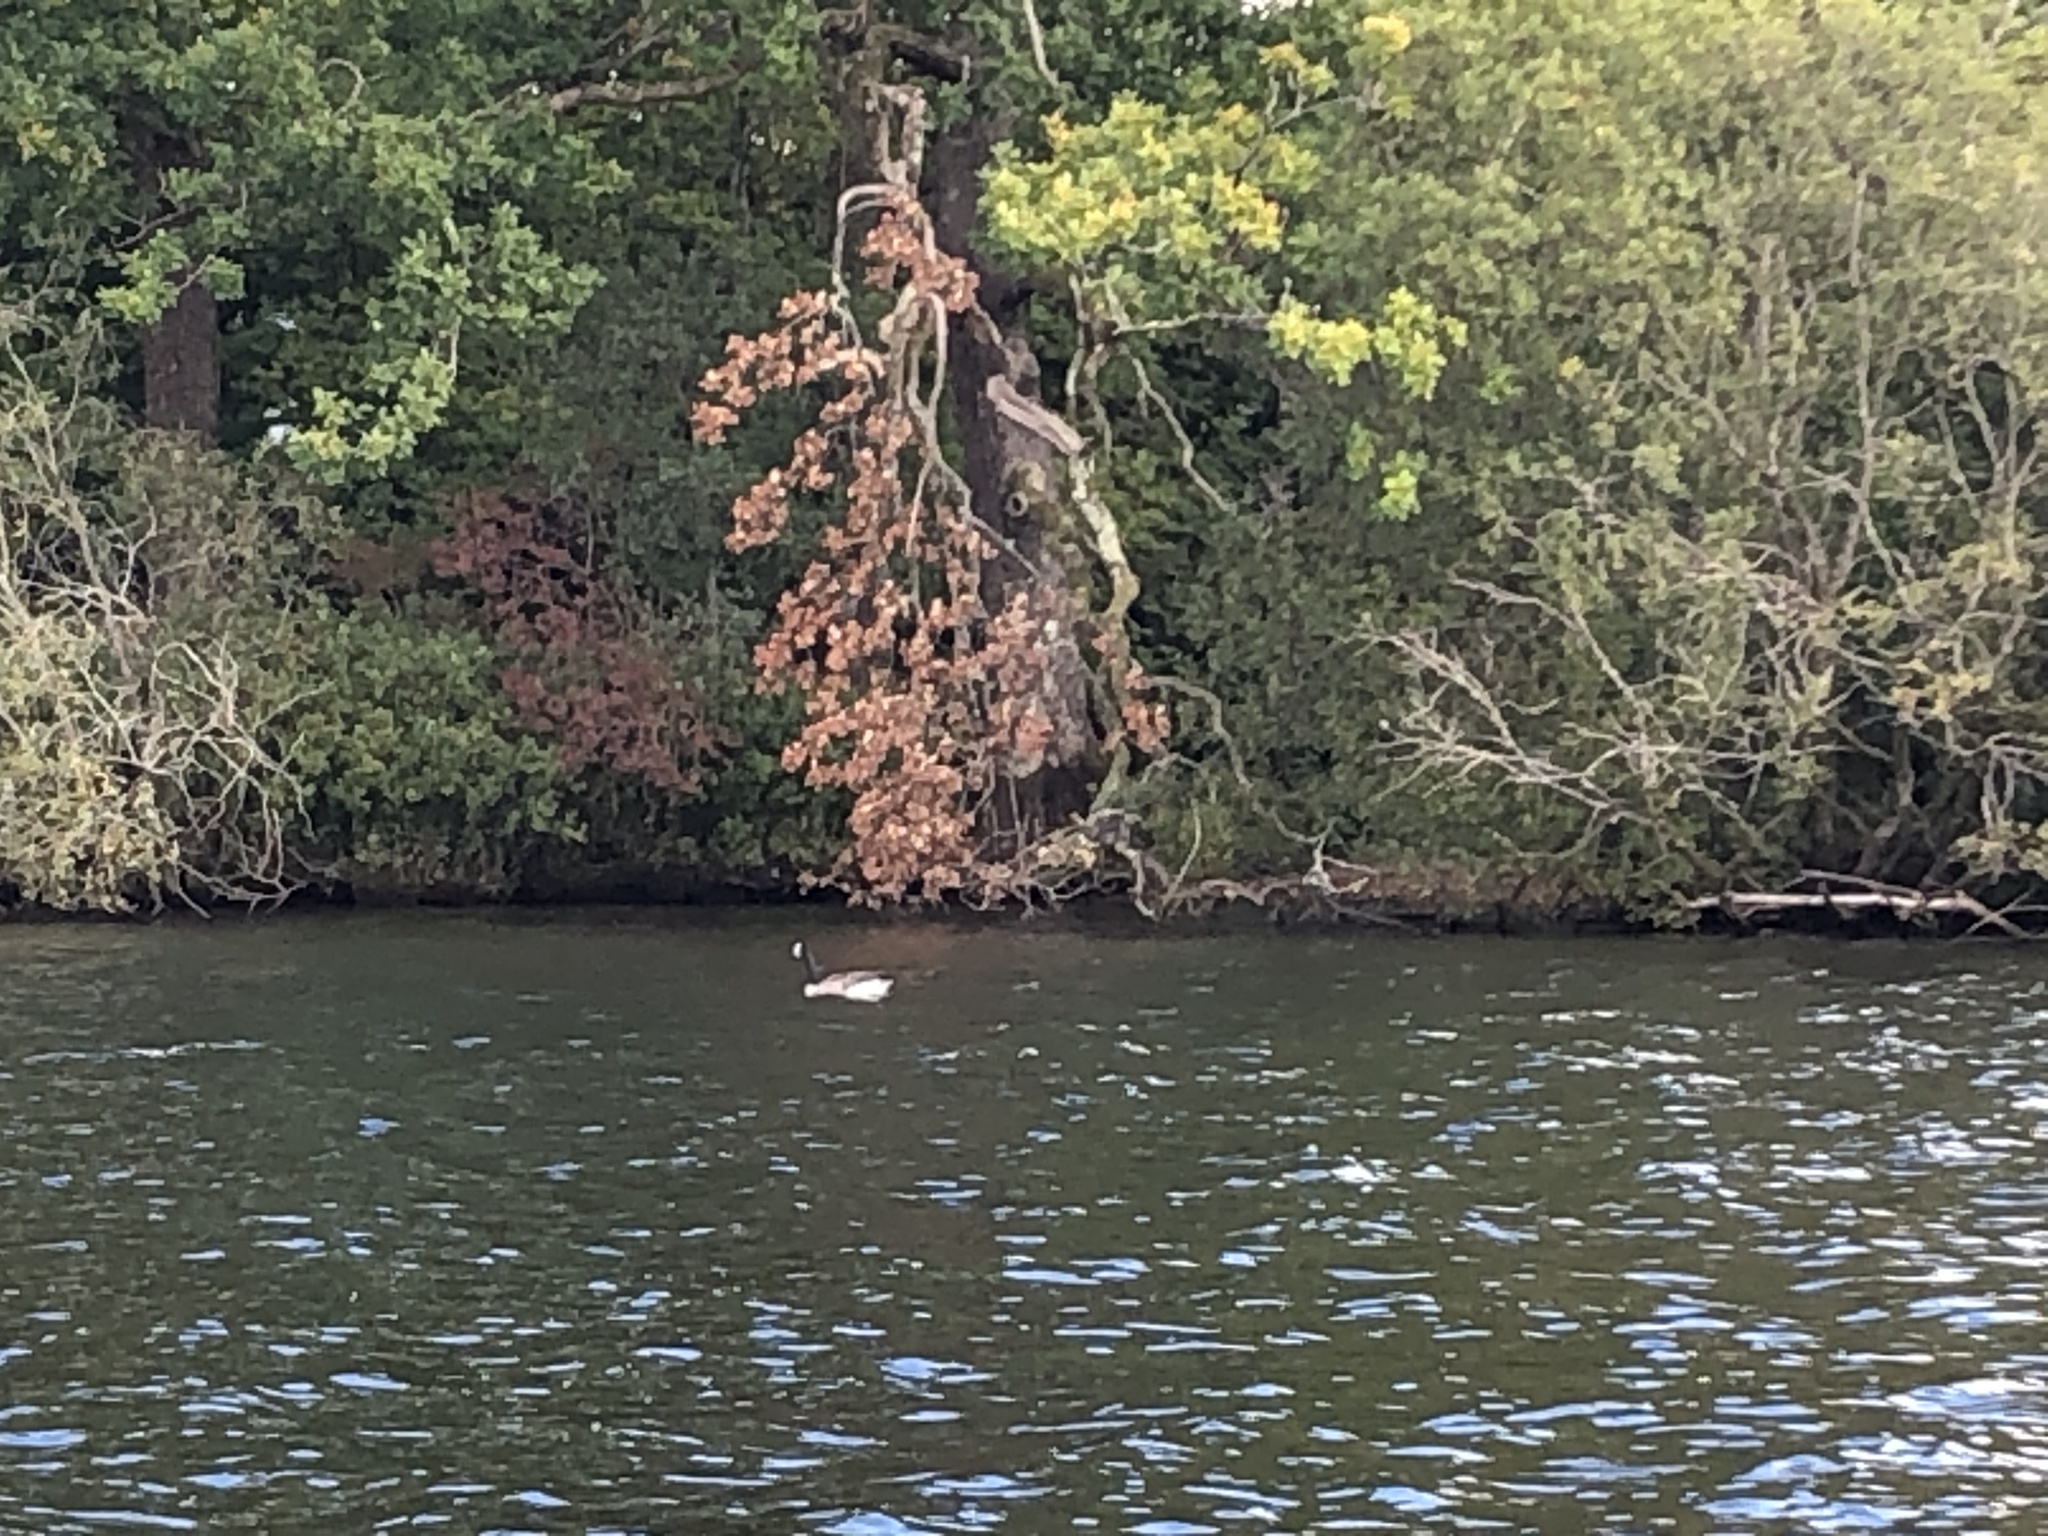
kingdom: Animalia
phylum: Chordata
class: Aves
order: Anseriformes
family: Anatidae
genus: Branta
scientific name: Branta canadensis
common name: Canada goose
